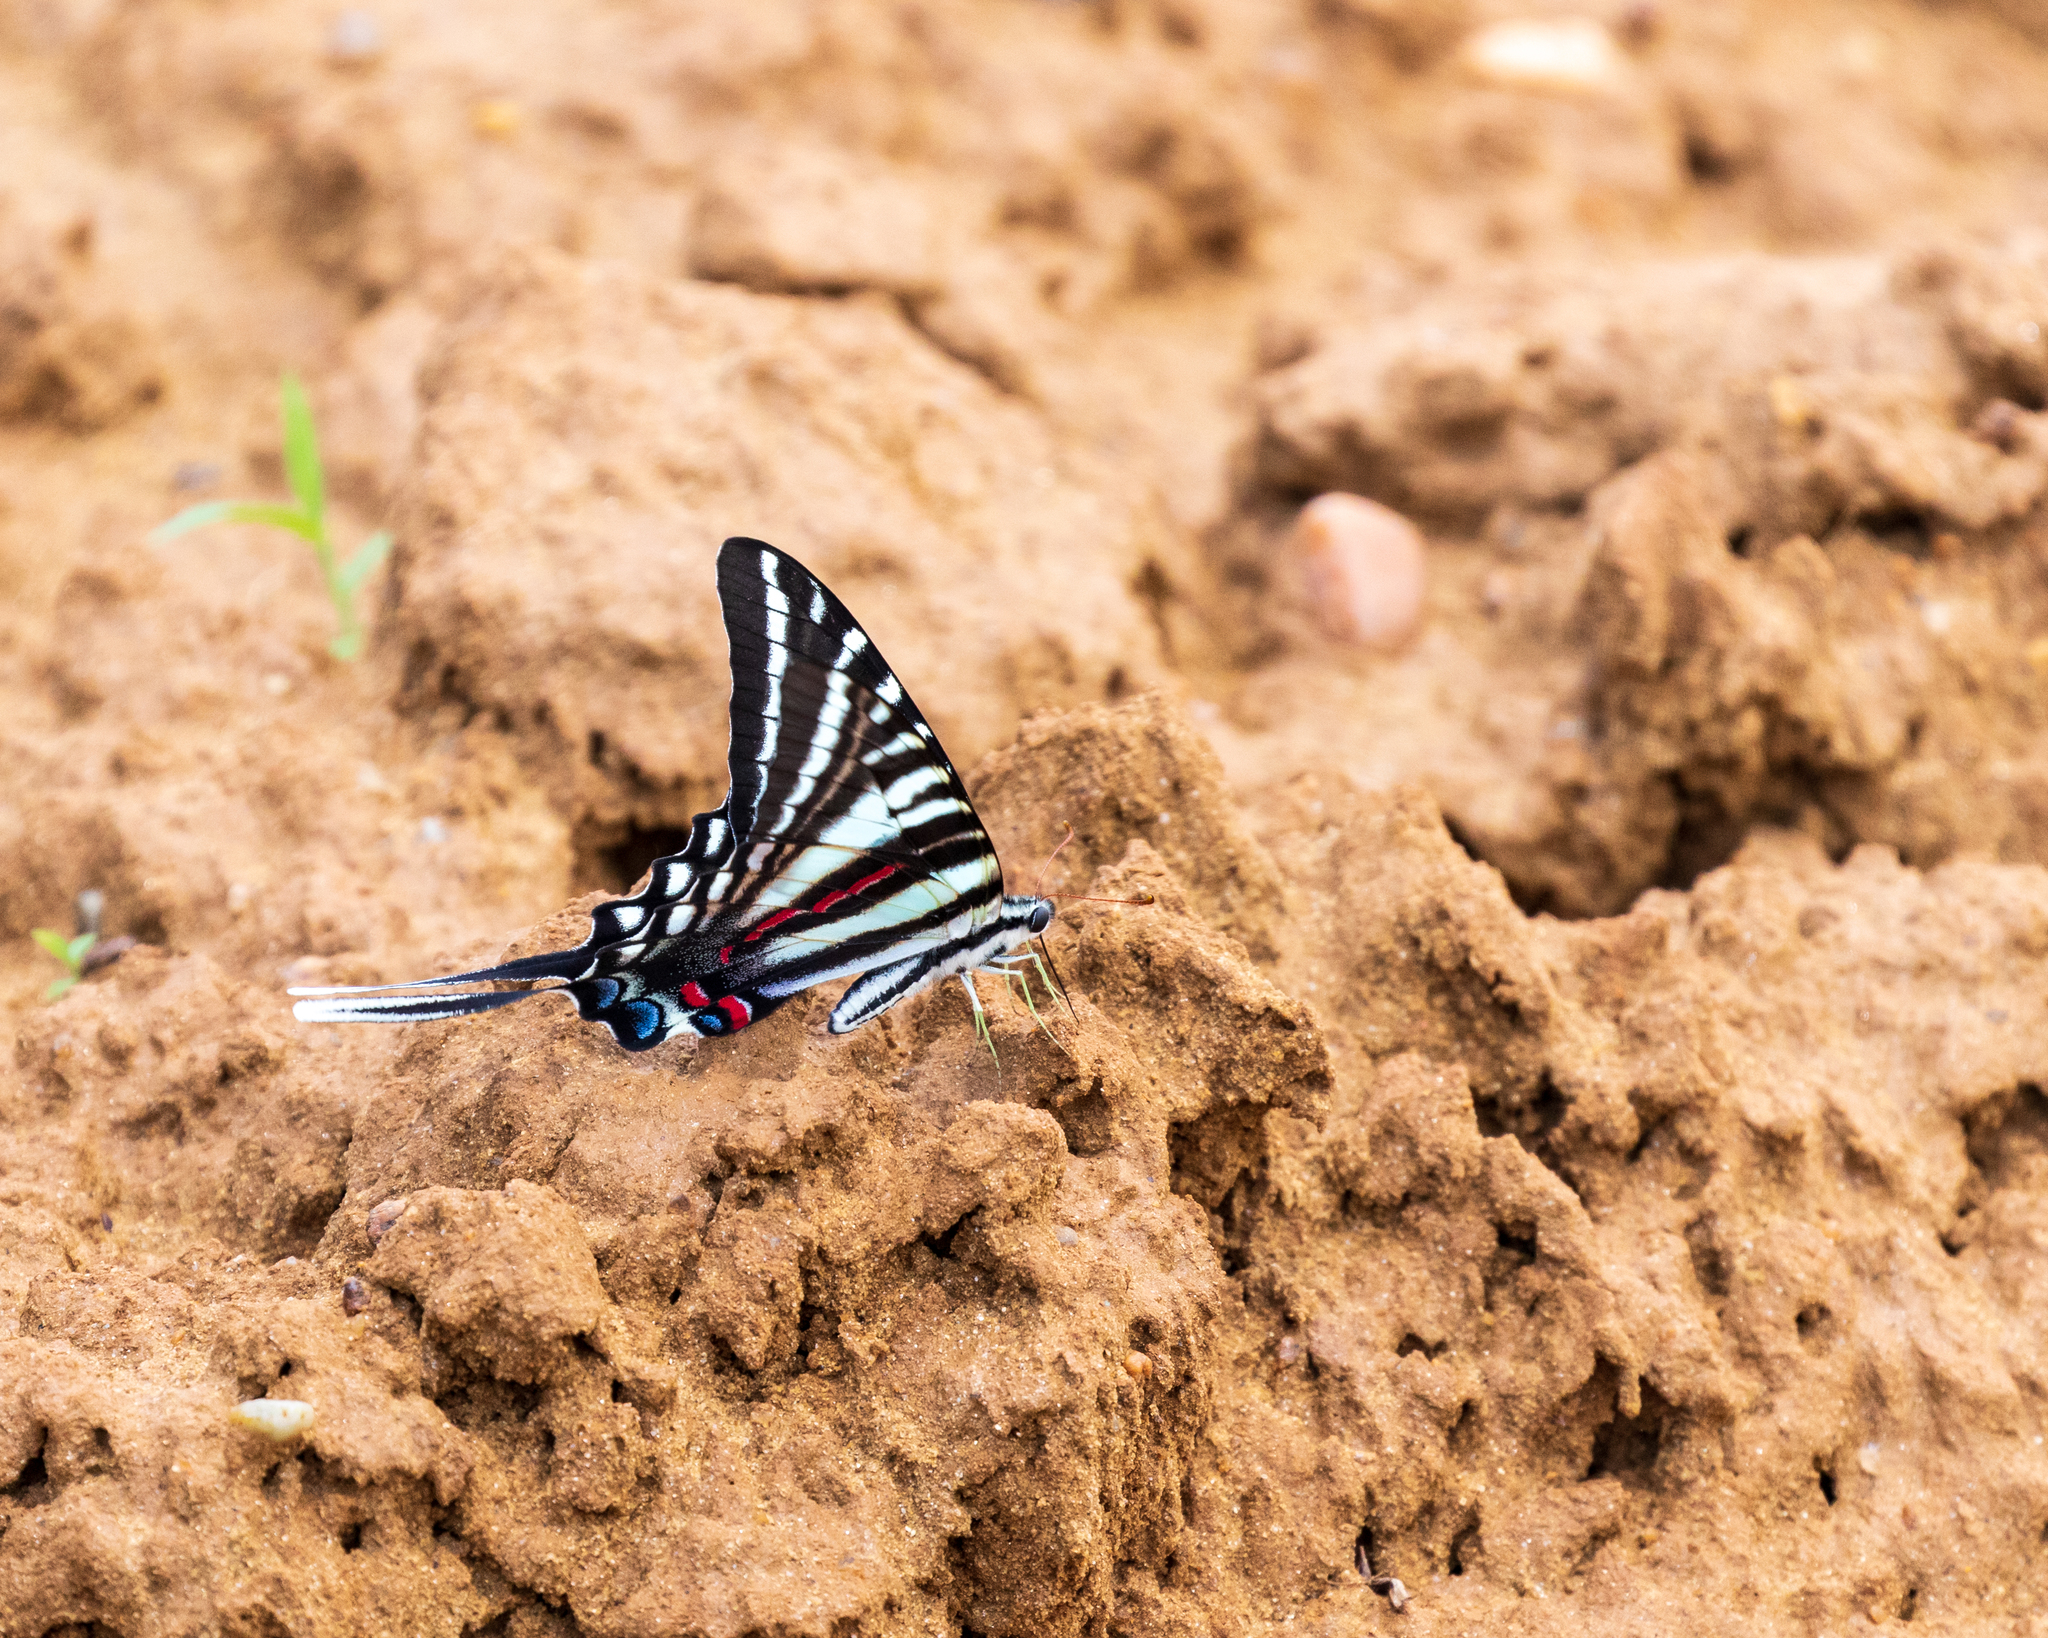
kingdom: Animalia
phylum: Arthropoda
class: Insecta
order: Lepidoptera
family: Papilionidae
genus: Protographium
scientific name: Protographium marcellus
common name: Zebra swallowtail
